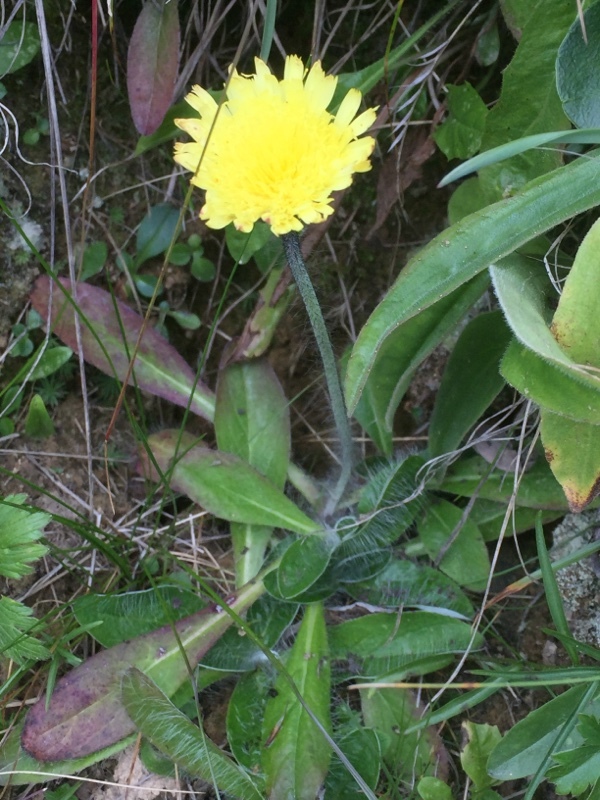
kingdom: Plantae
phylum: Tracheophyta
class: Magnoliopsida
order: Asterales
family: Asteraceae
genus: Pilosella
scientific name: Pilosella officinarum
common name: Mouse-ear hawkweed
